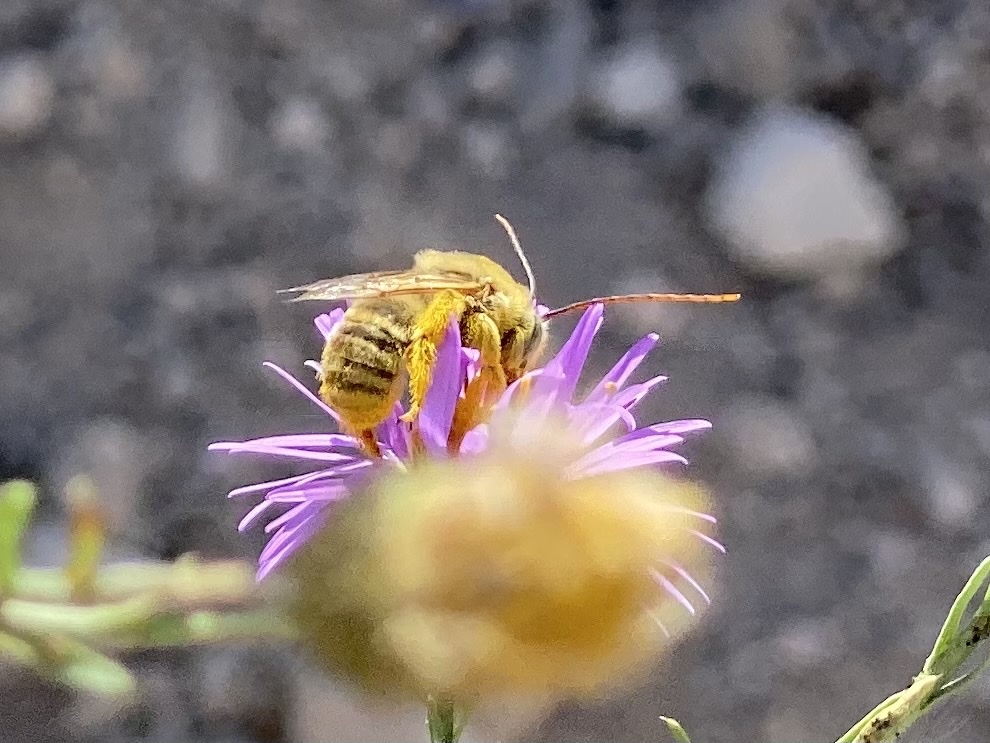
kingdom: Animalia
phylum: Arthropoda
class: Insecta
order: Hymenoptera
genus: Eumelissodes
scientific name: Eumelissodes
